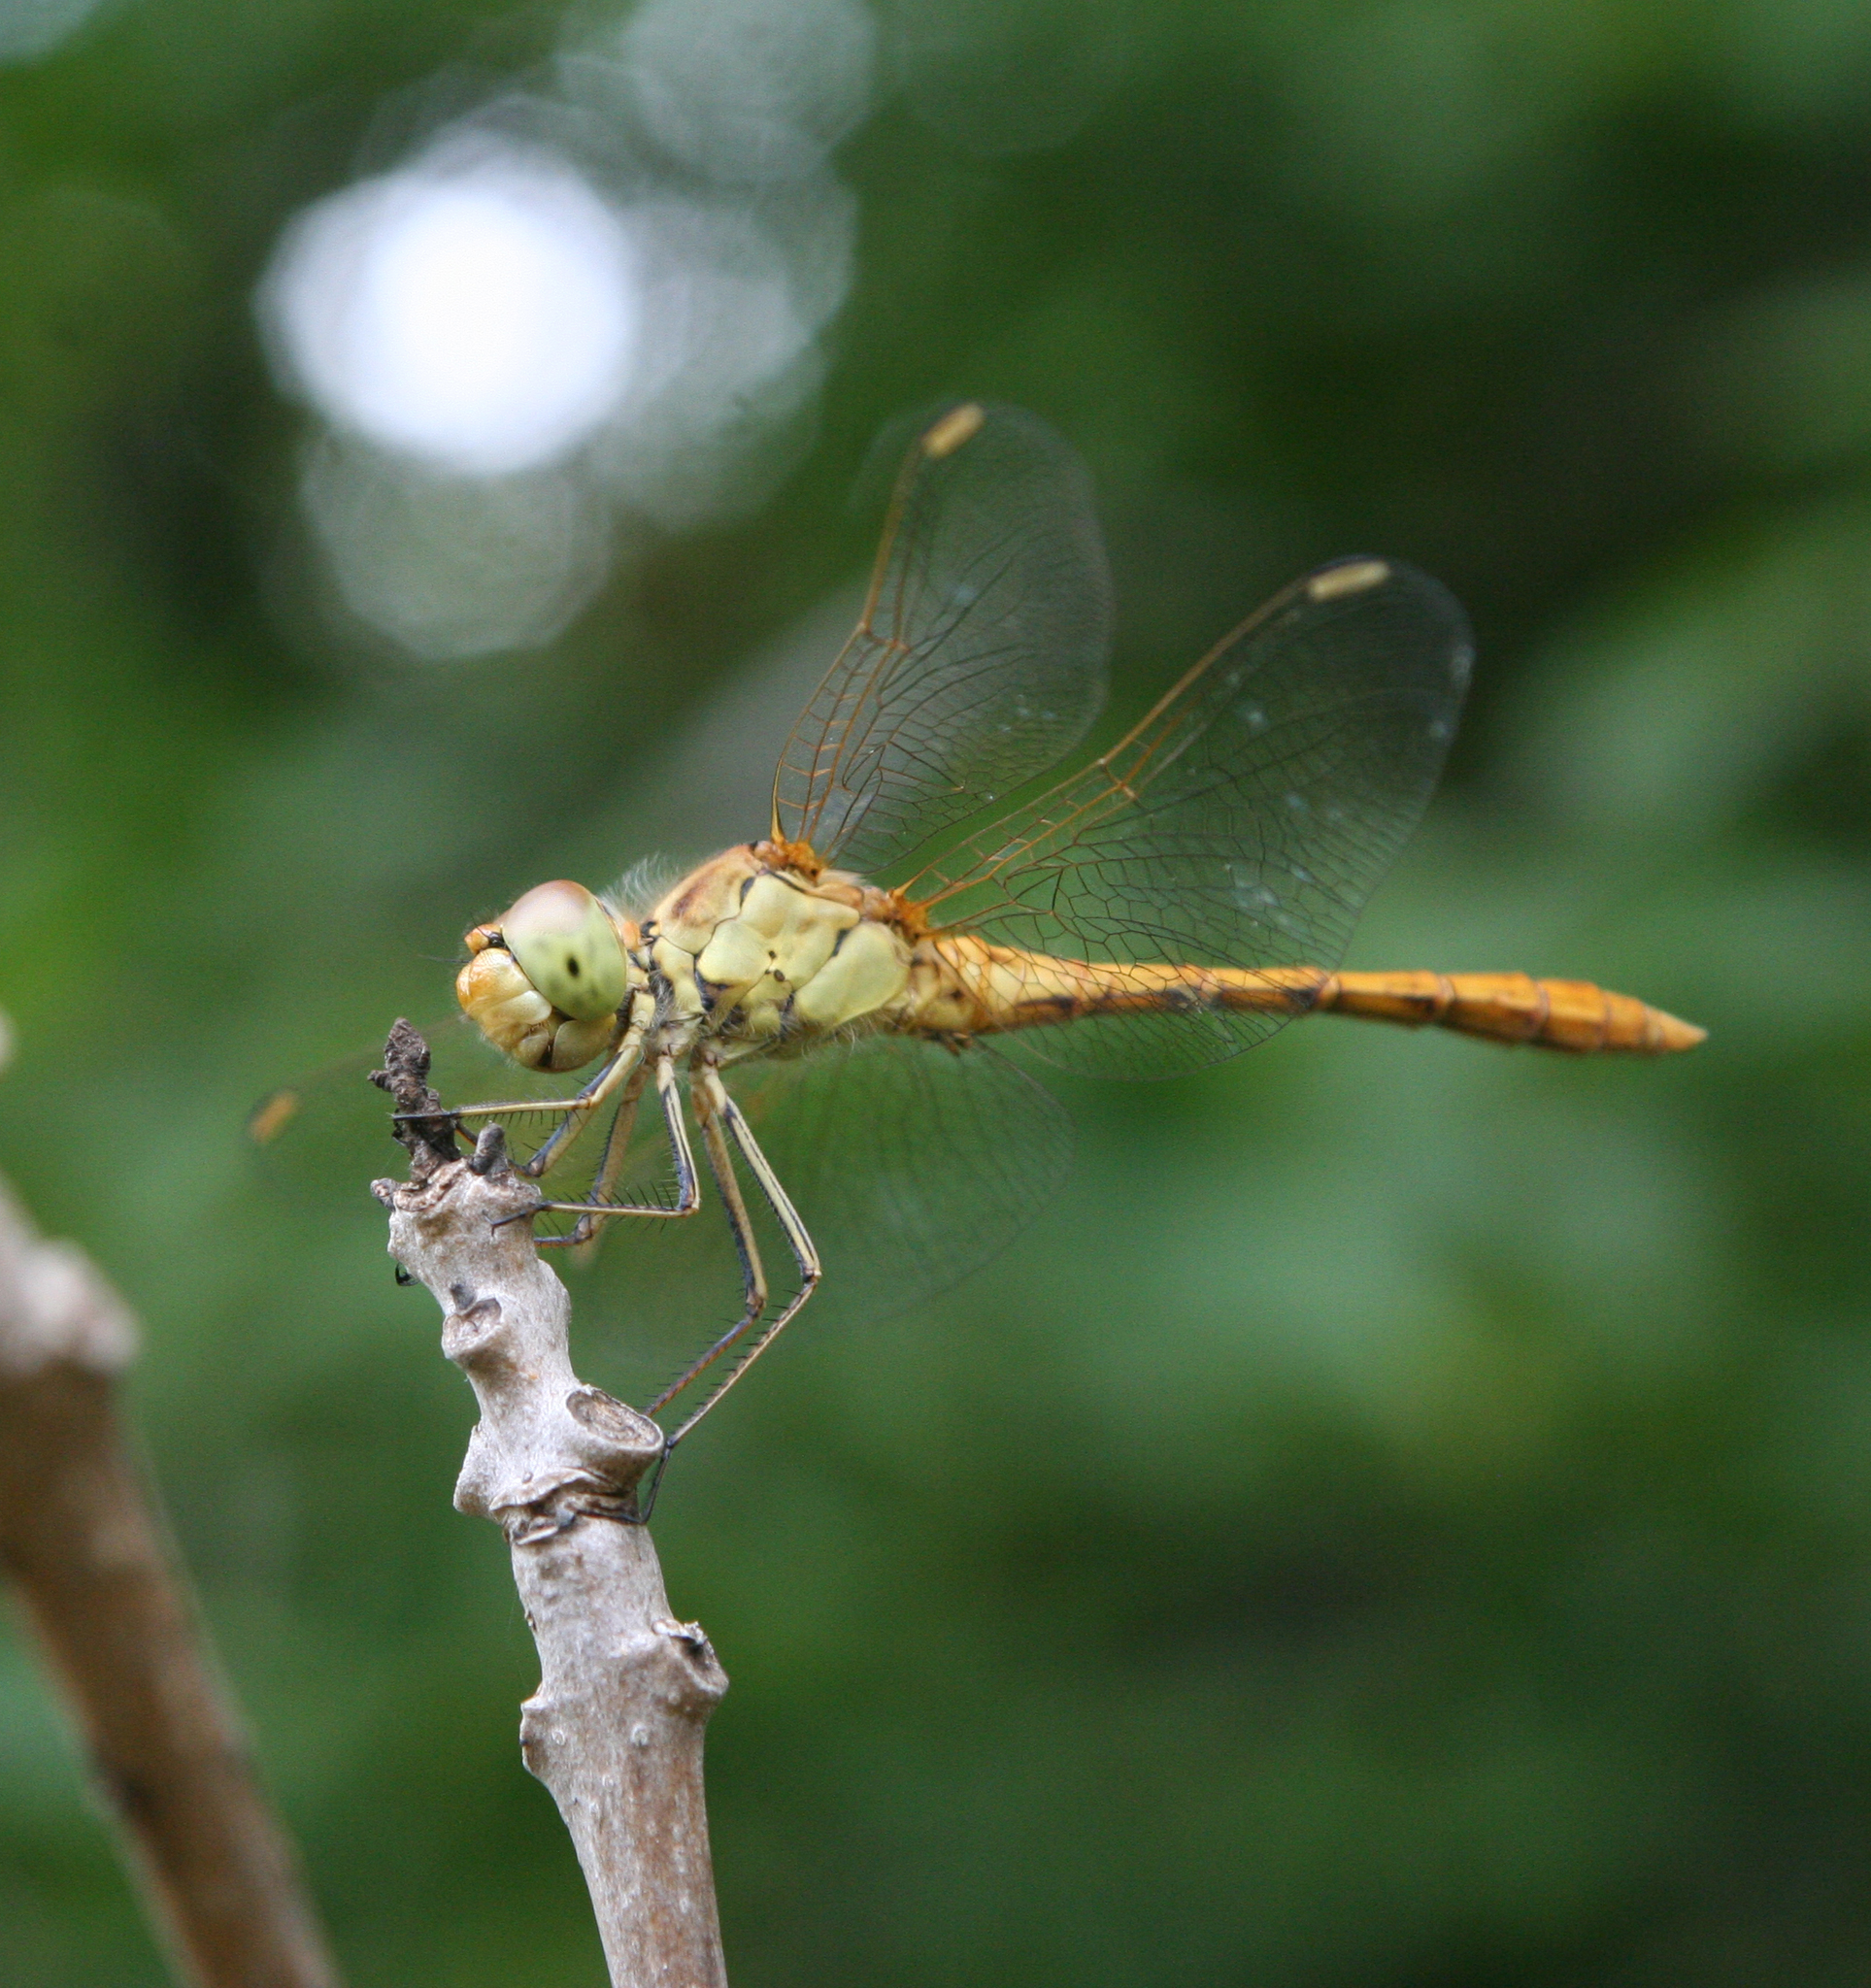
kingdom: Animalia
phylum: Arthropoda
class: Insecta
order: Odonata
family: Libellulidae
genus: Sympetrum
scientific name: Sympetrum meridionale
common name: Southern darter
